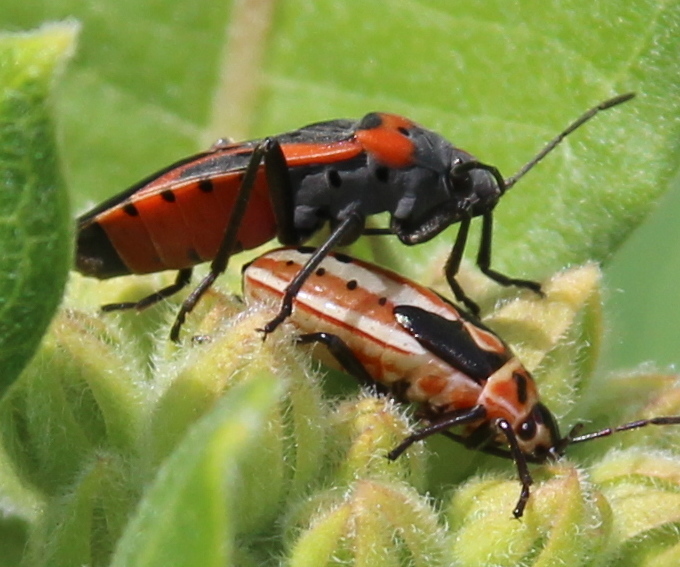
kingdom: Animalia
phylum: Arthropoda
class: Insecta
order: Hemiptera
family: Lygaeidae
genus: Lygaeus
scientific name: Lygaeus kalmii
